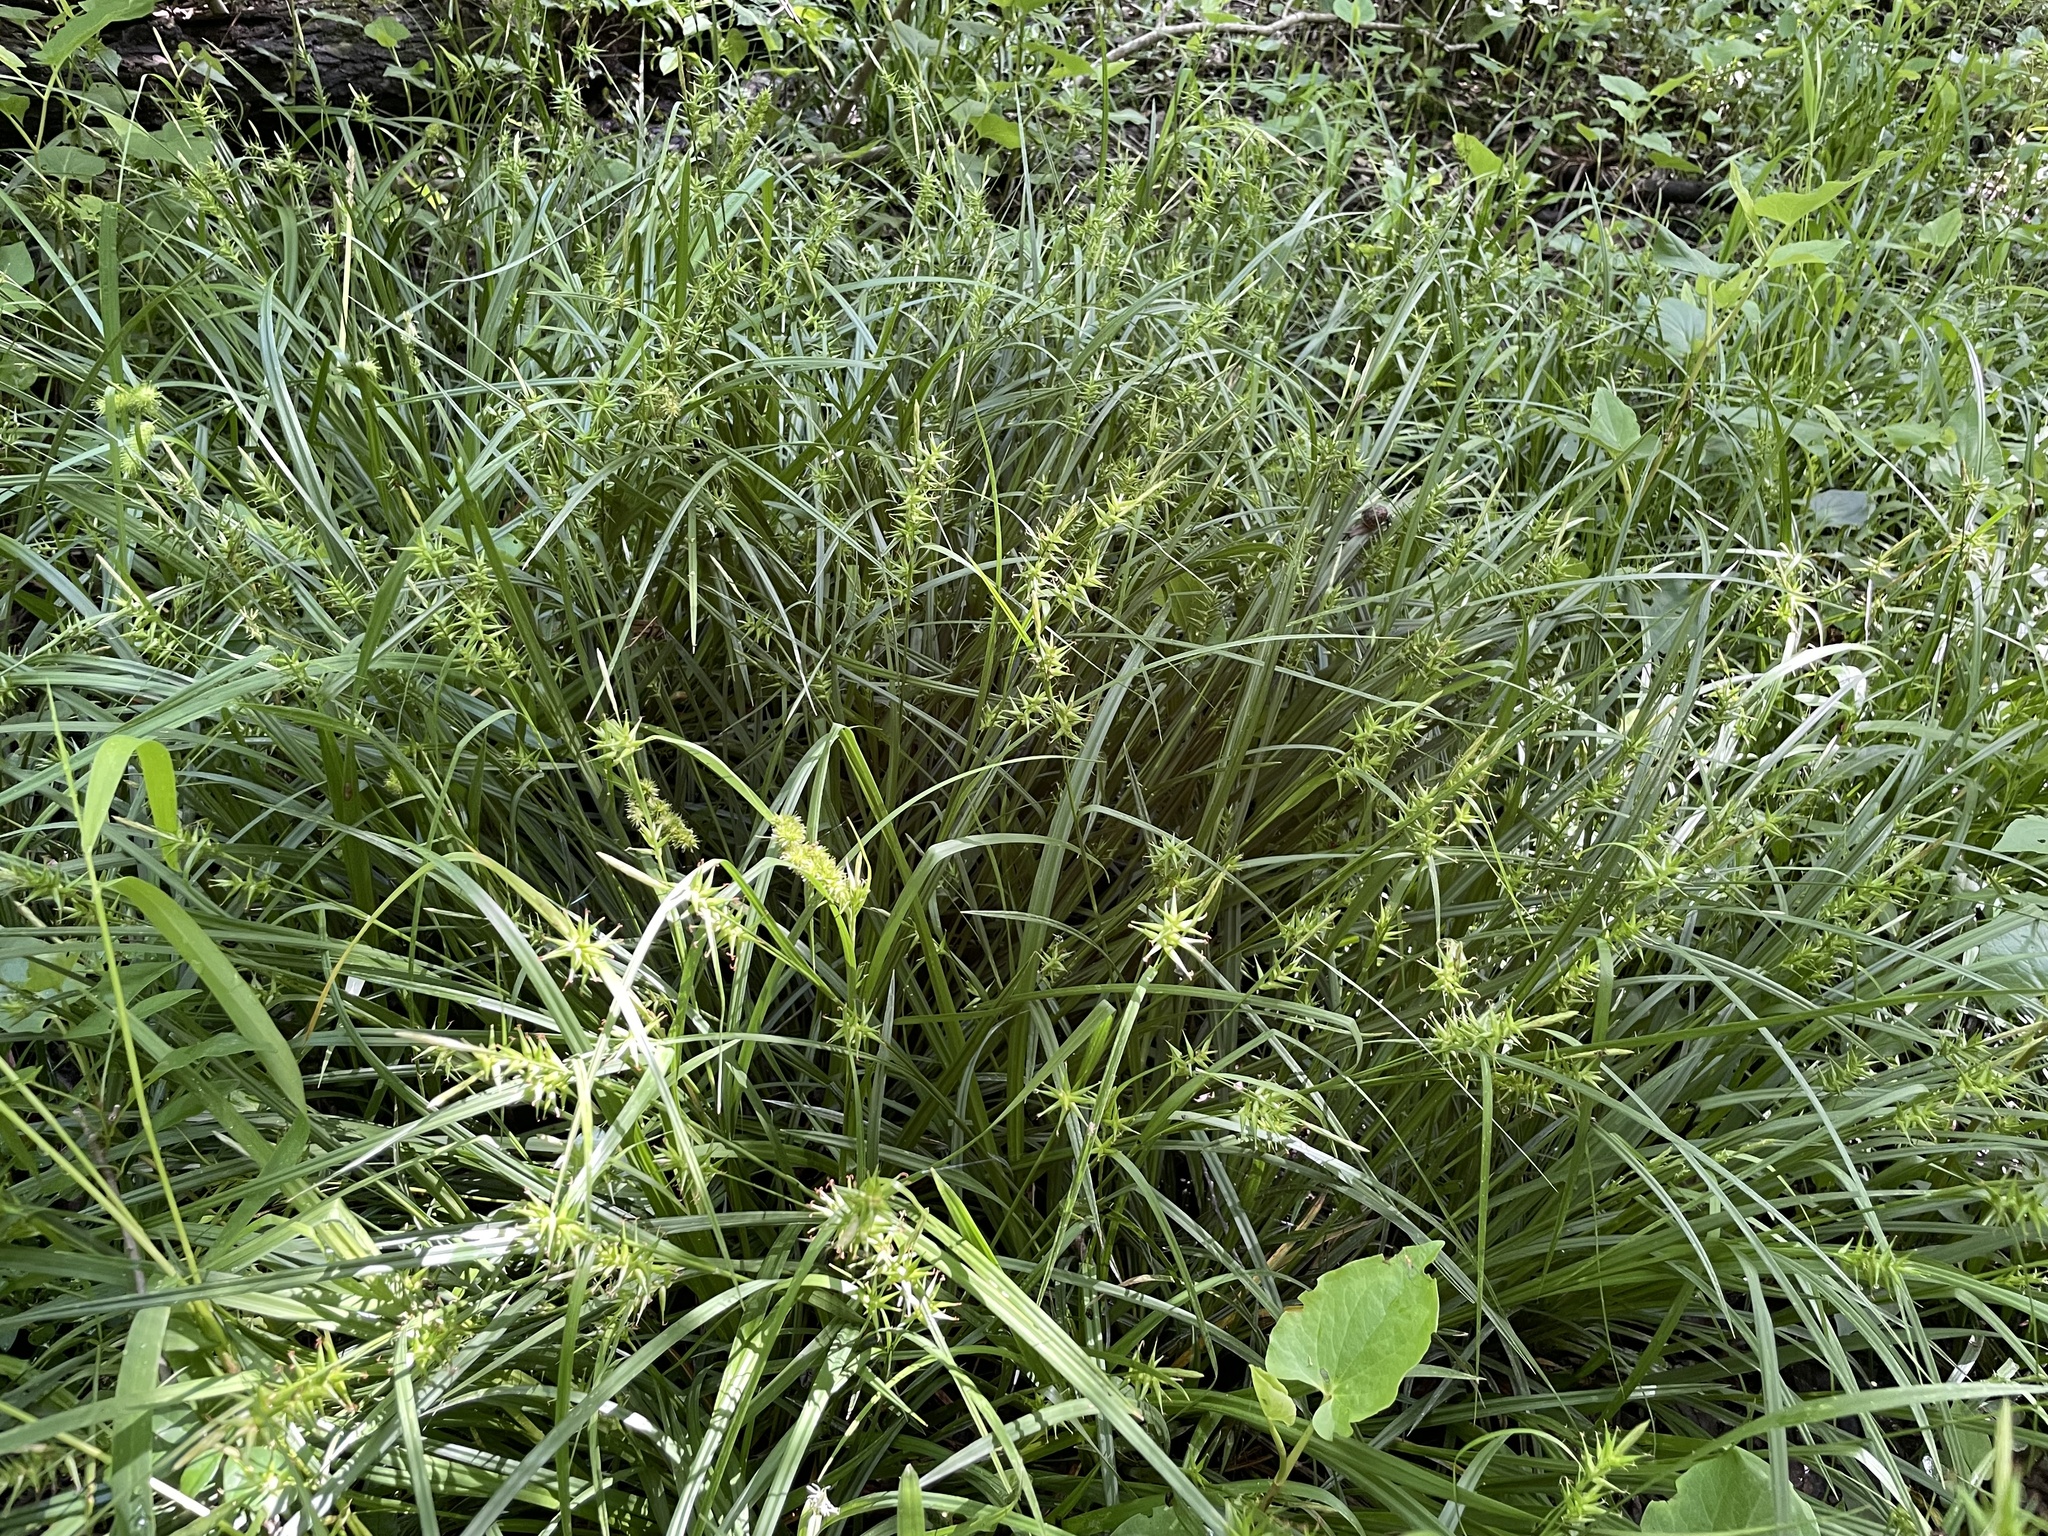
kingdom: Plantae
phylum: Tracheophyta
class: Liliopsida
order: Poales
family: Cyperaceae
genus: Carex
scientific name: Carex lonchocarpa
